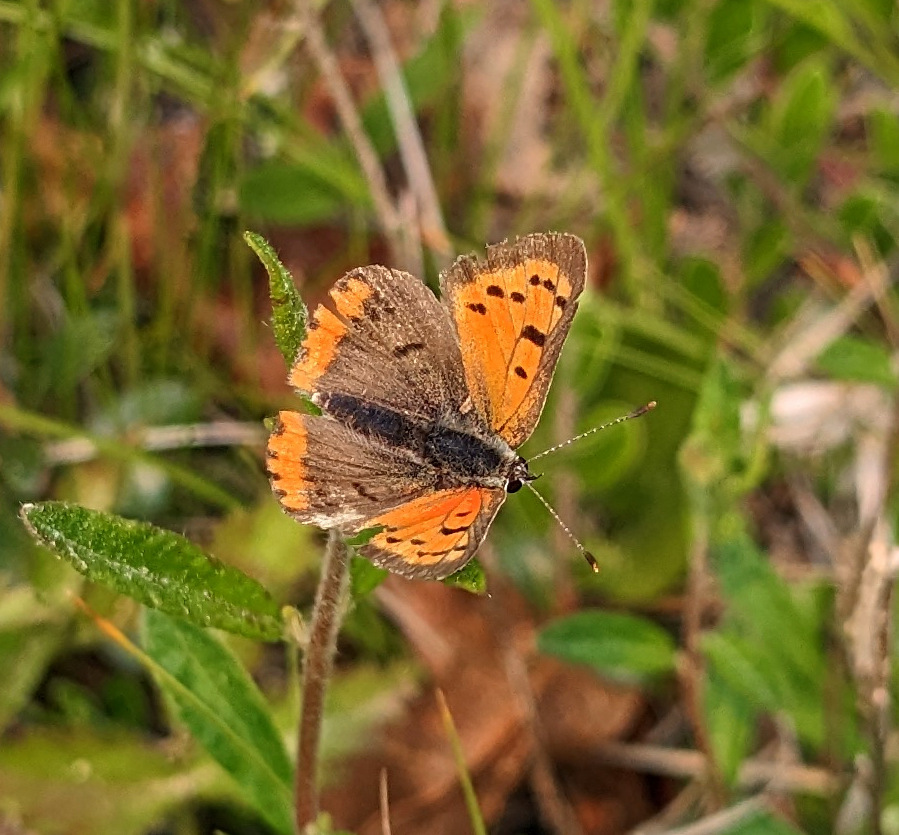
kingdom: Animalia
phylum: Arthropoda
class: Insecta
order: Lepidoptera
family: Lycaenidae
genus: Lycaena
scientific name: Lycaena hypophlaeas
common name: American copper
